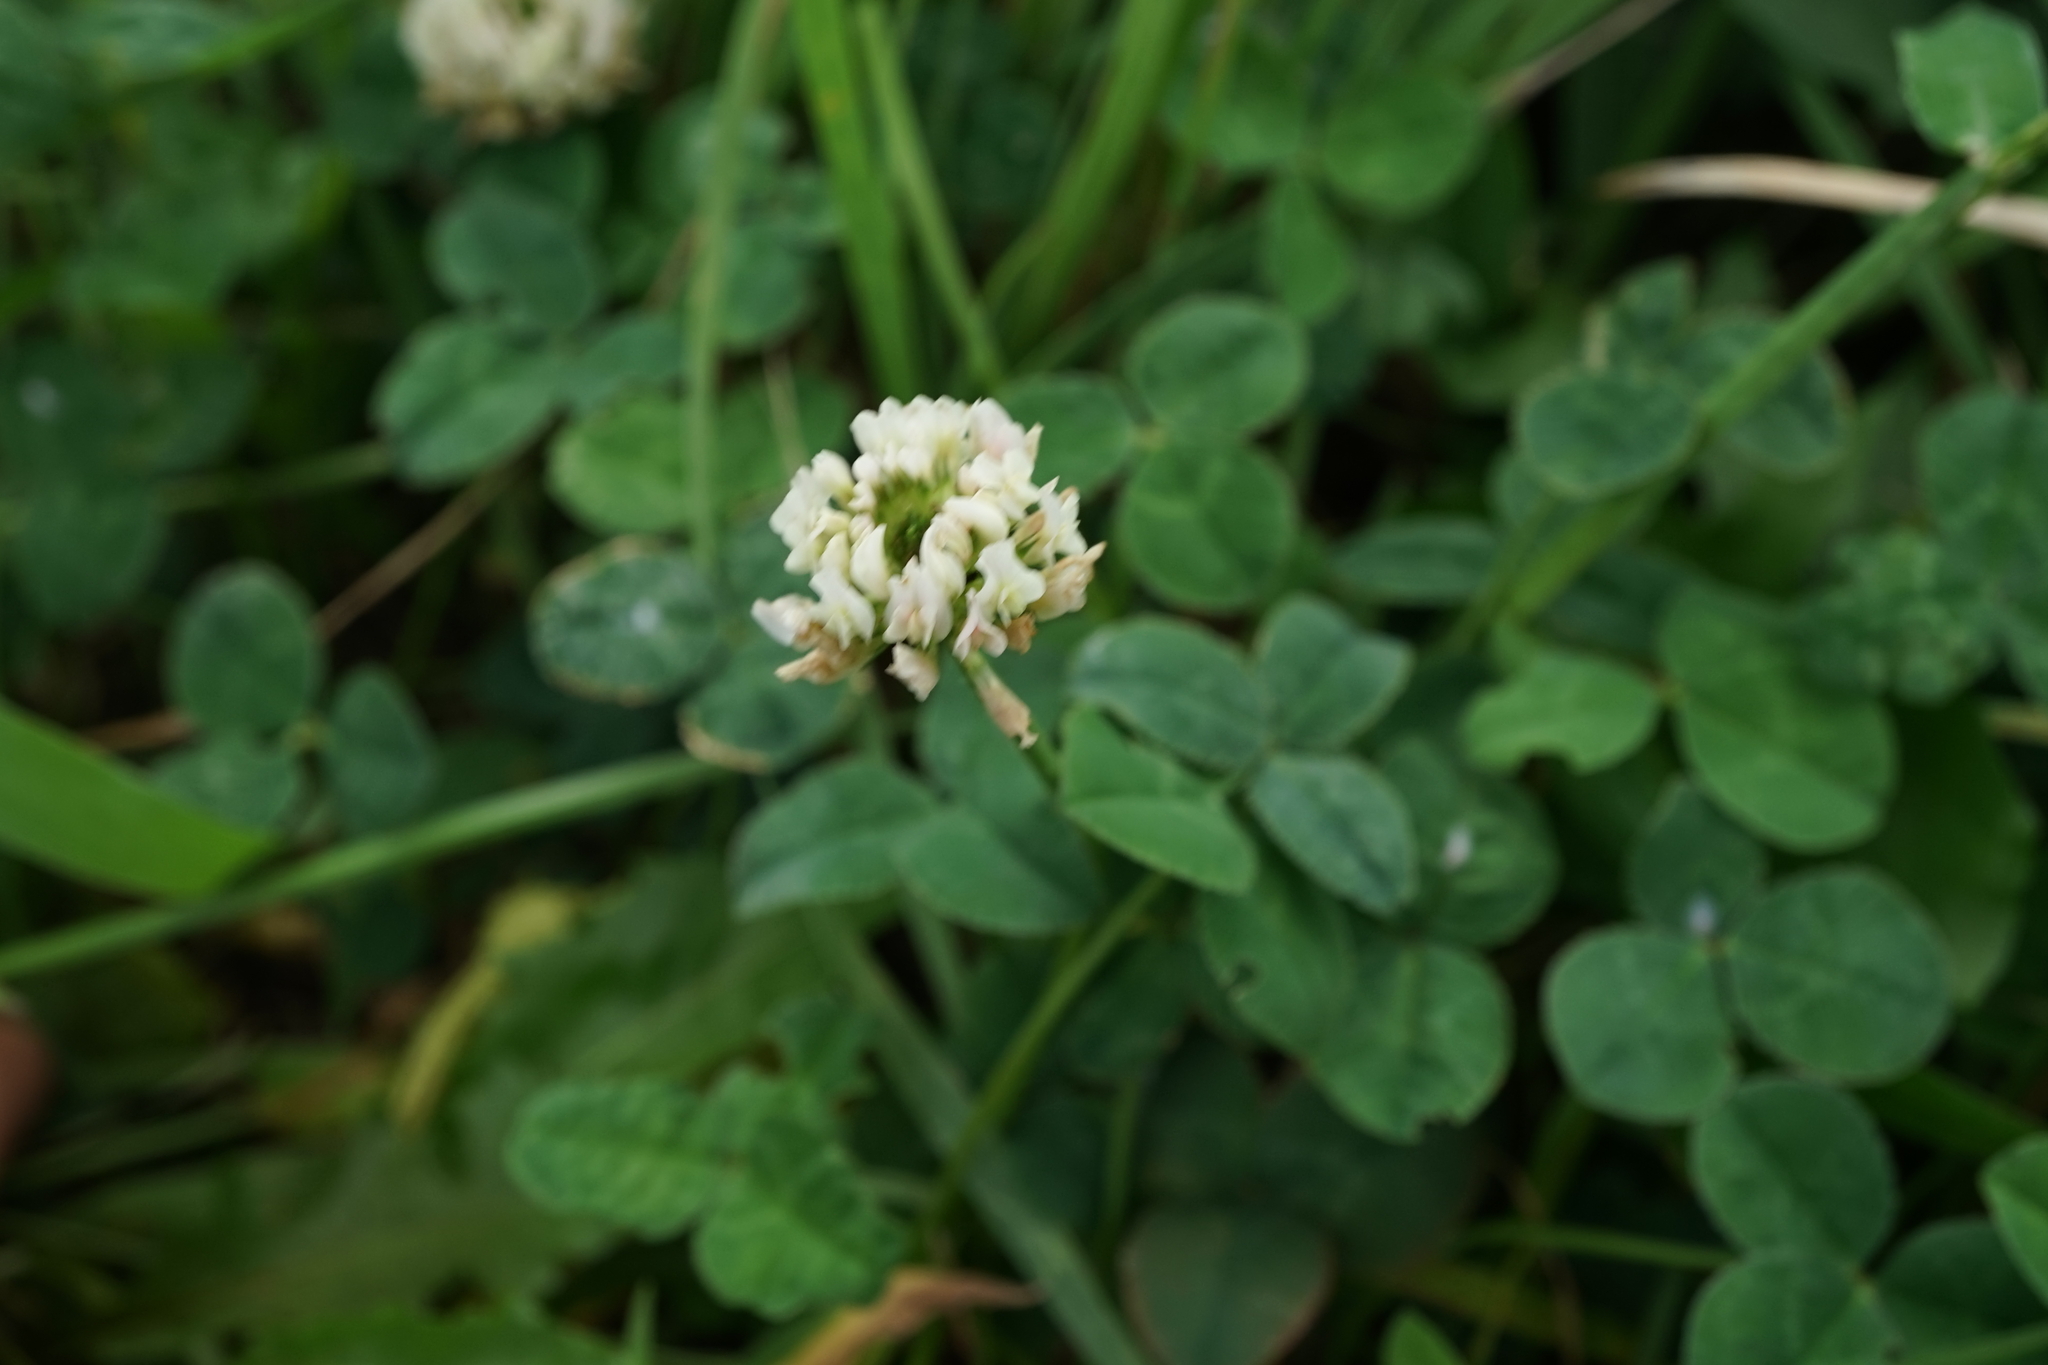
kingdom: Plantae
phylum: Tracheophyta
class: Magnoliopsida
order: Fabales
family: Fabaceae
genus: Trifolium
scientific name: Trifolium repens
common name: White clover
